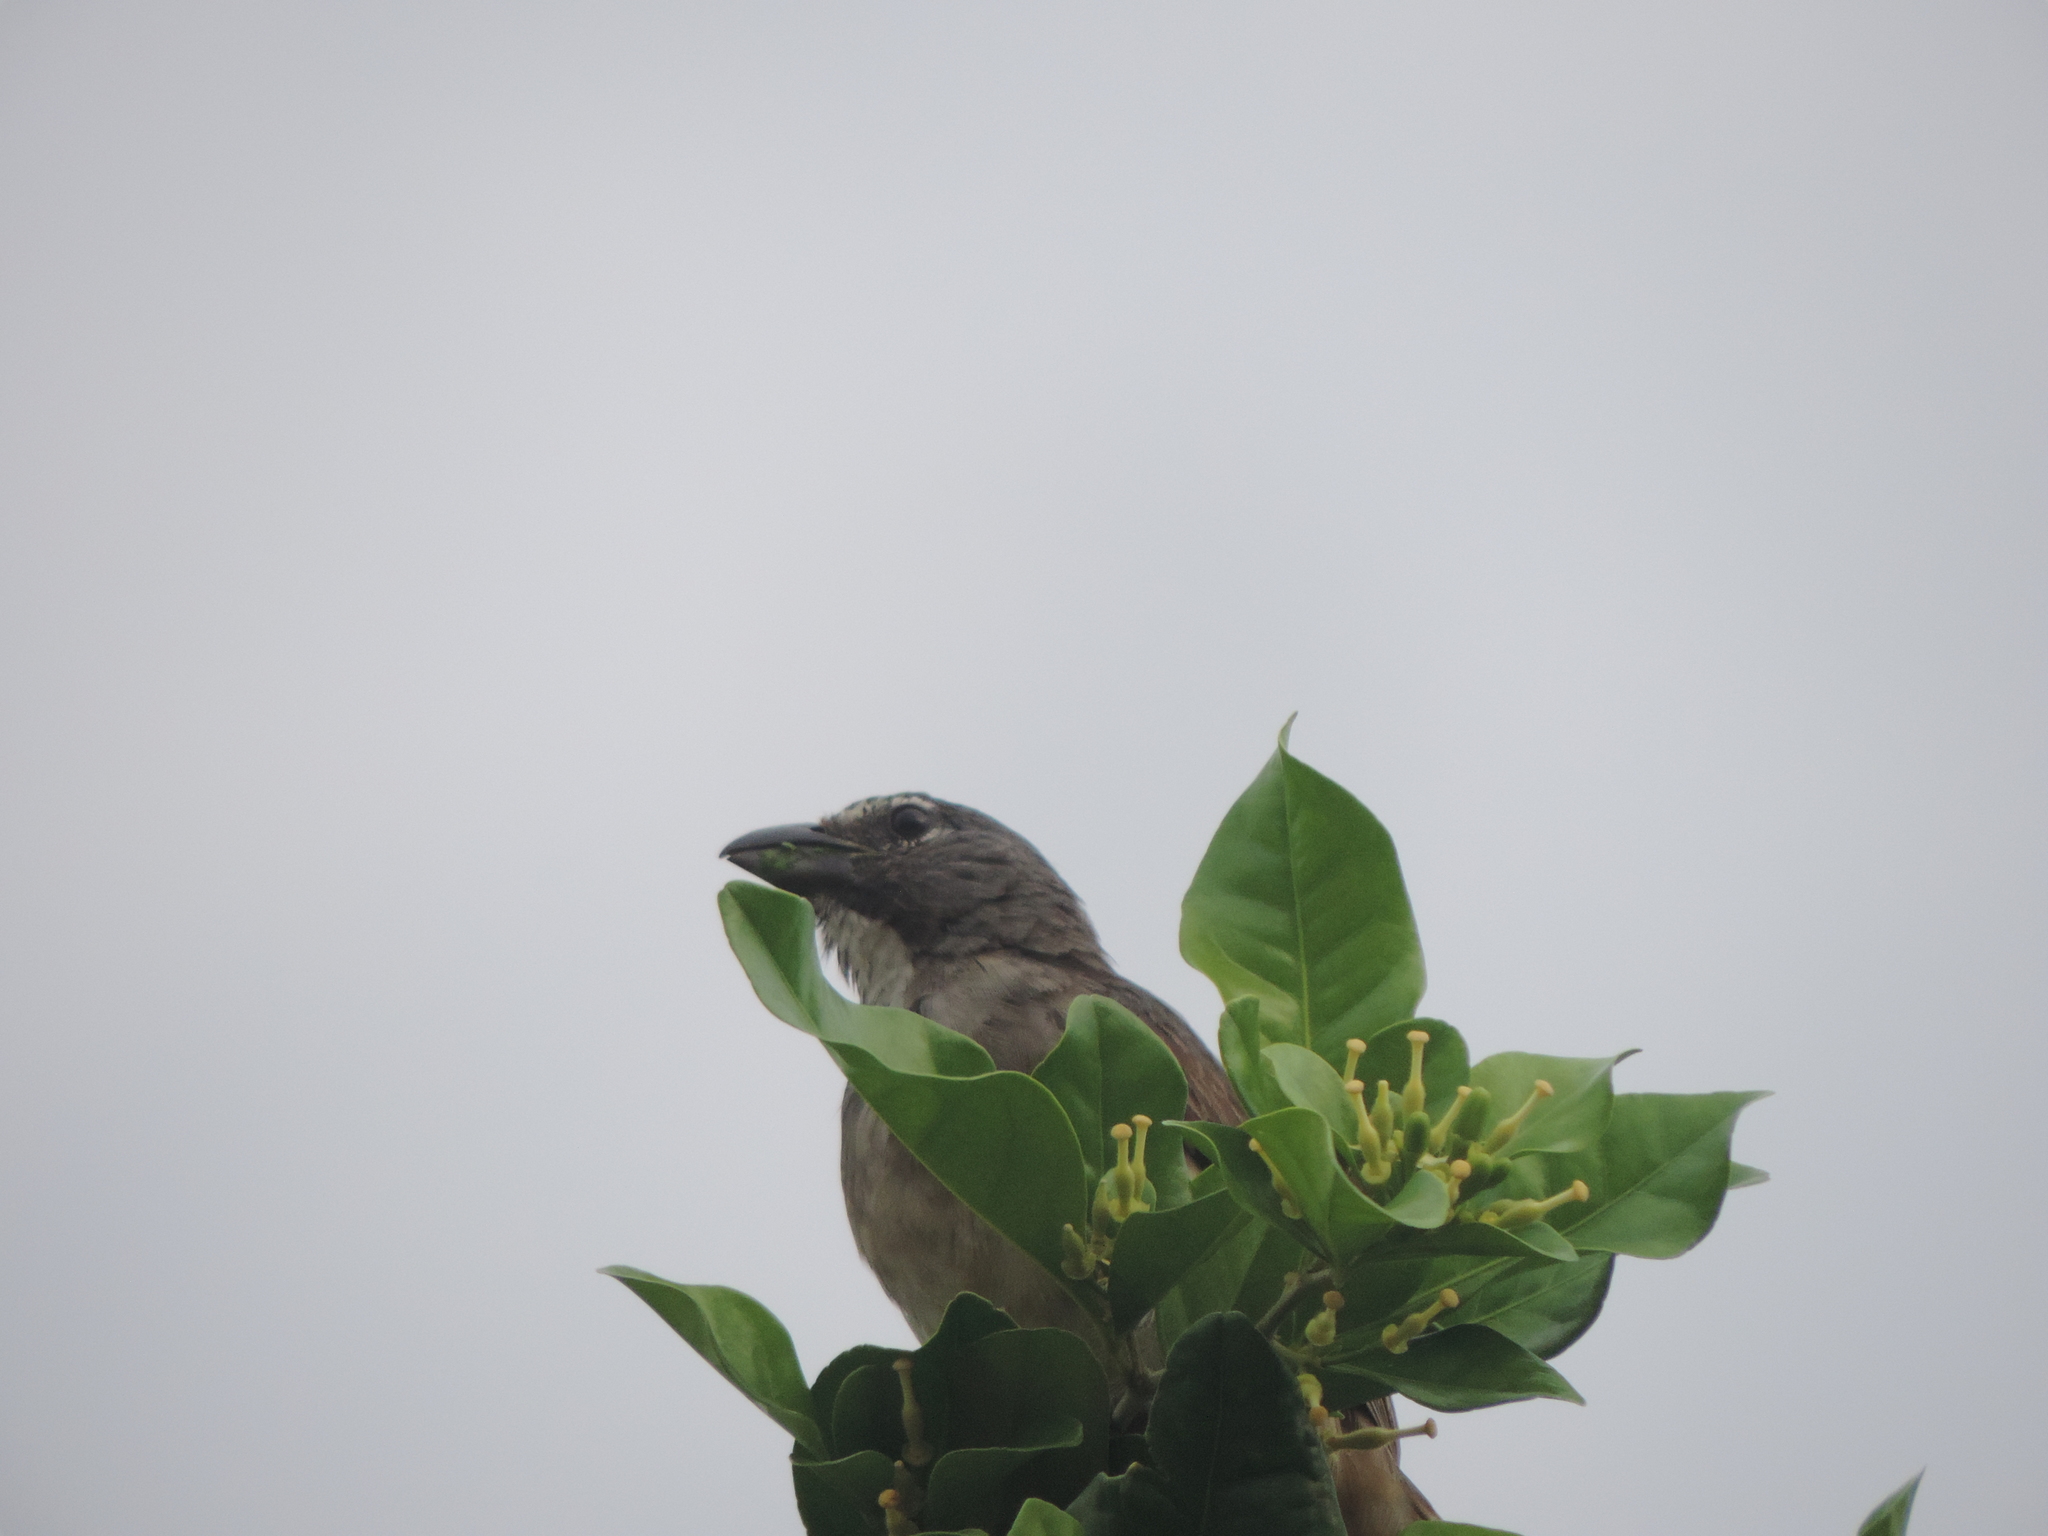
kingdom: Animalia
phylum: Chordata
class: Aves
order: Passeriformes
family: Thraupidae
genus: Saltator
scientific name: Saltator olivascens
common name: Caribbean grey saltator
